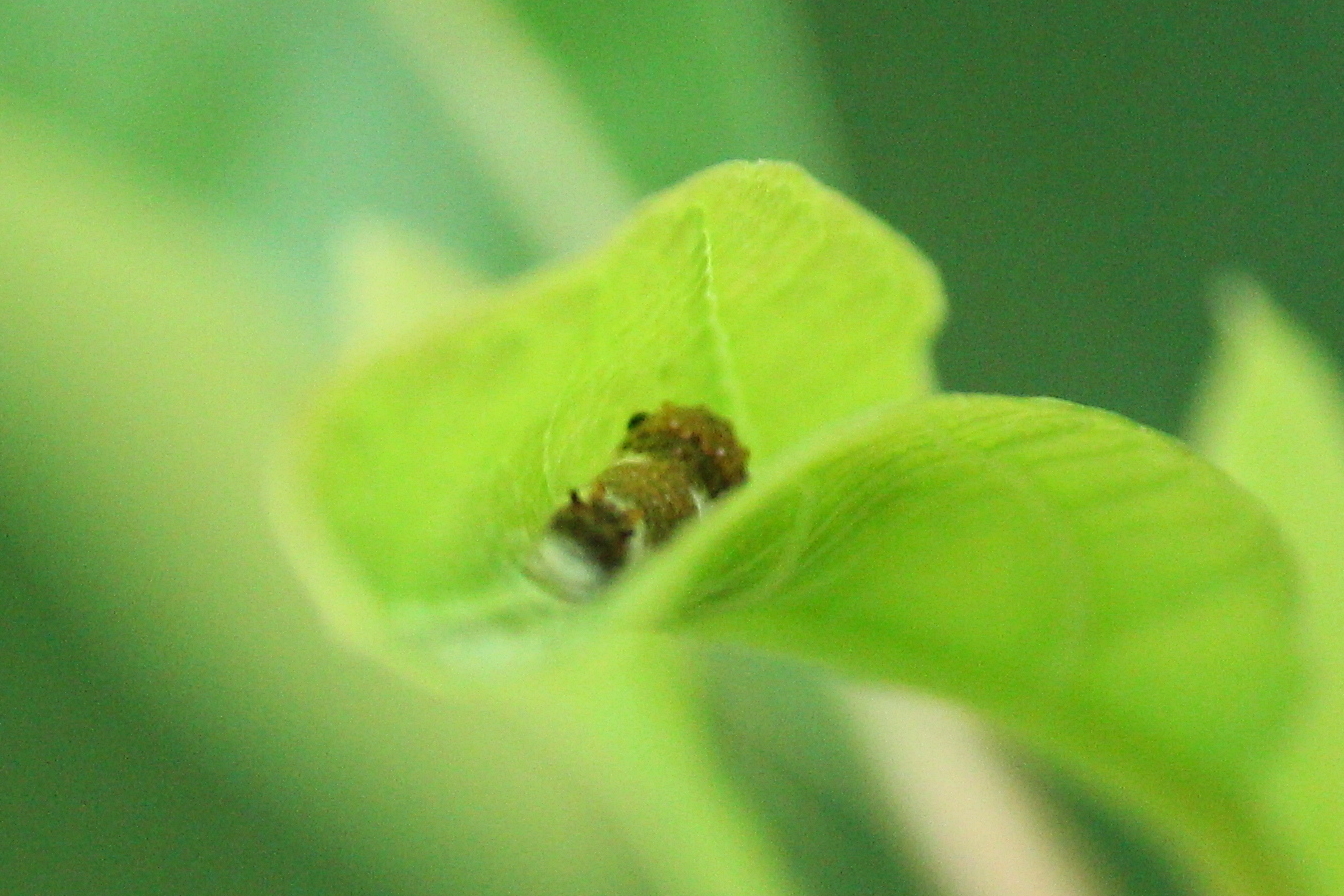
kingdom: Animalia
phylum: Arthropoda
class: Insecta
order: Lepidoptera
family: Papilionidae
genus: Papilio
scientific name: Papilio troilus
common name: Spicebush swallowtail
